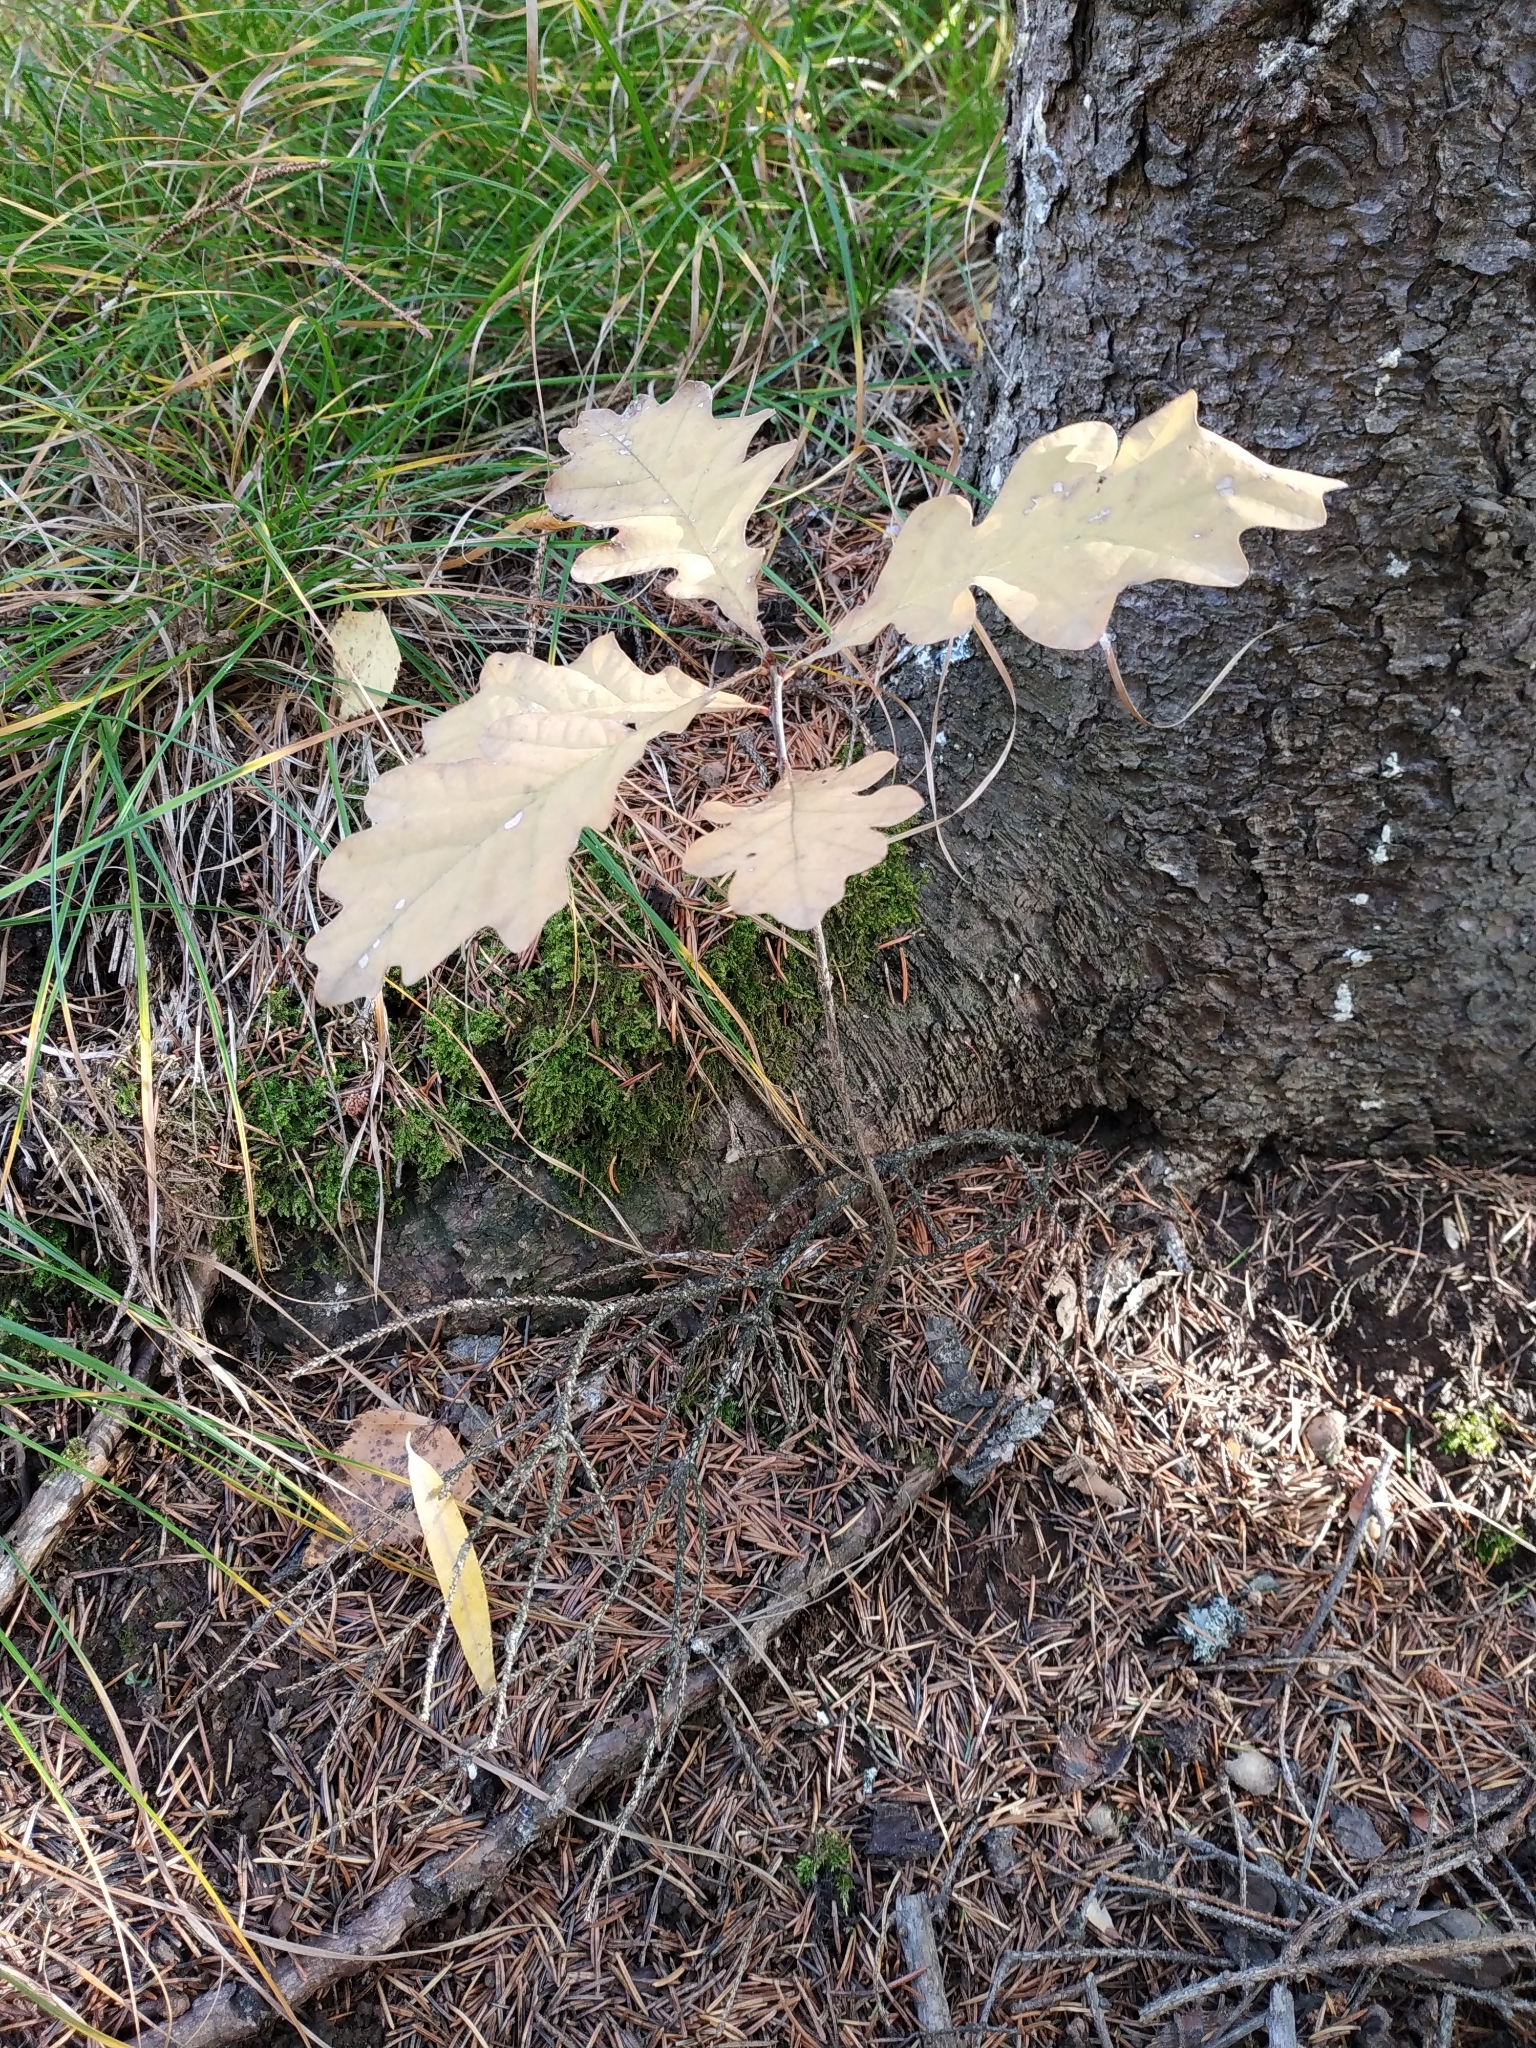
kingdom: Plantae
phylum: Tracheophyta
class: Magnoliopsida
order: Fagales
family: Fagaceae
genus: Quercus
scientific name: Quercus robur
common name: Pedunculate oak
